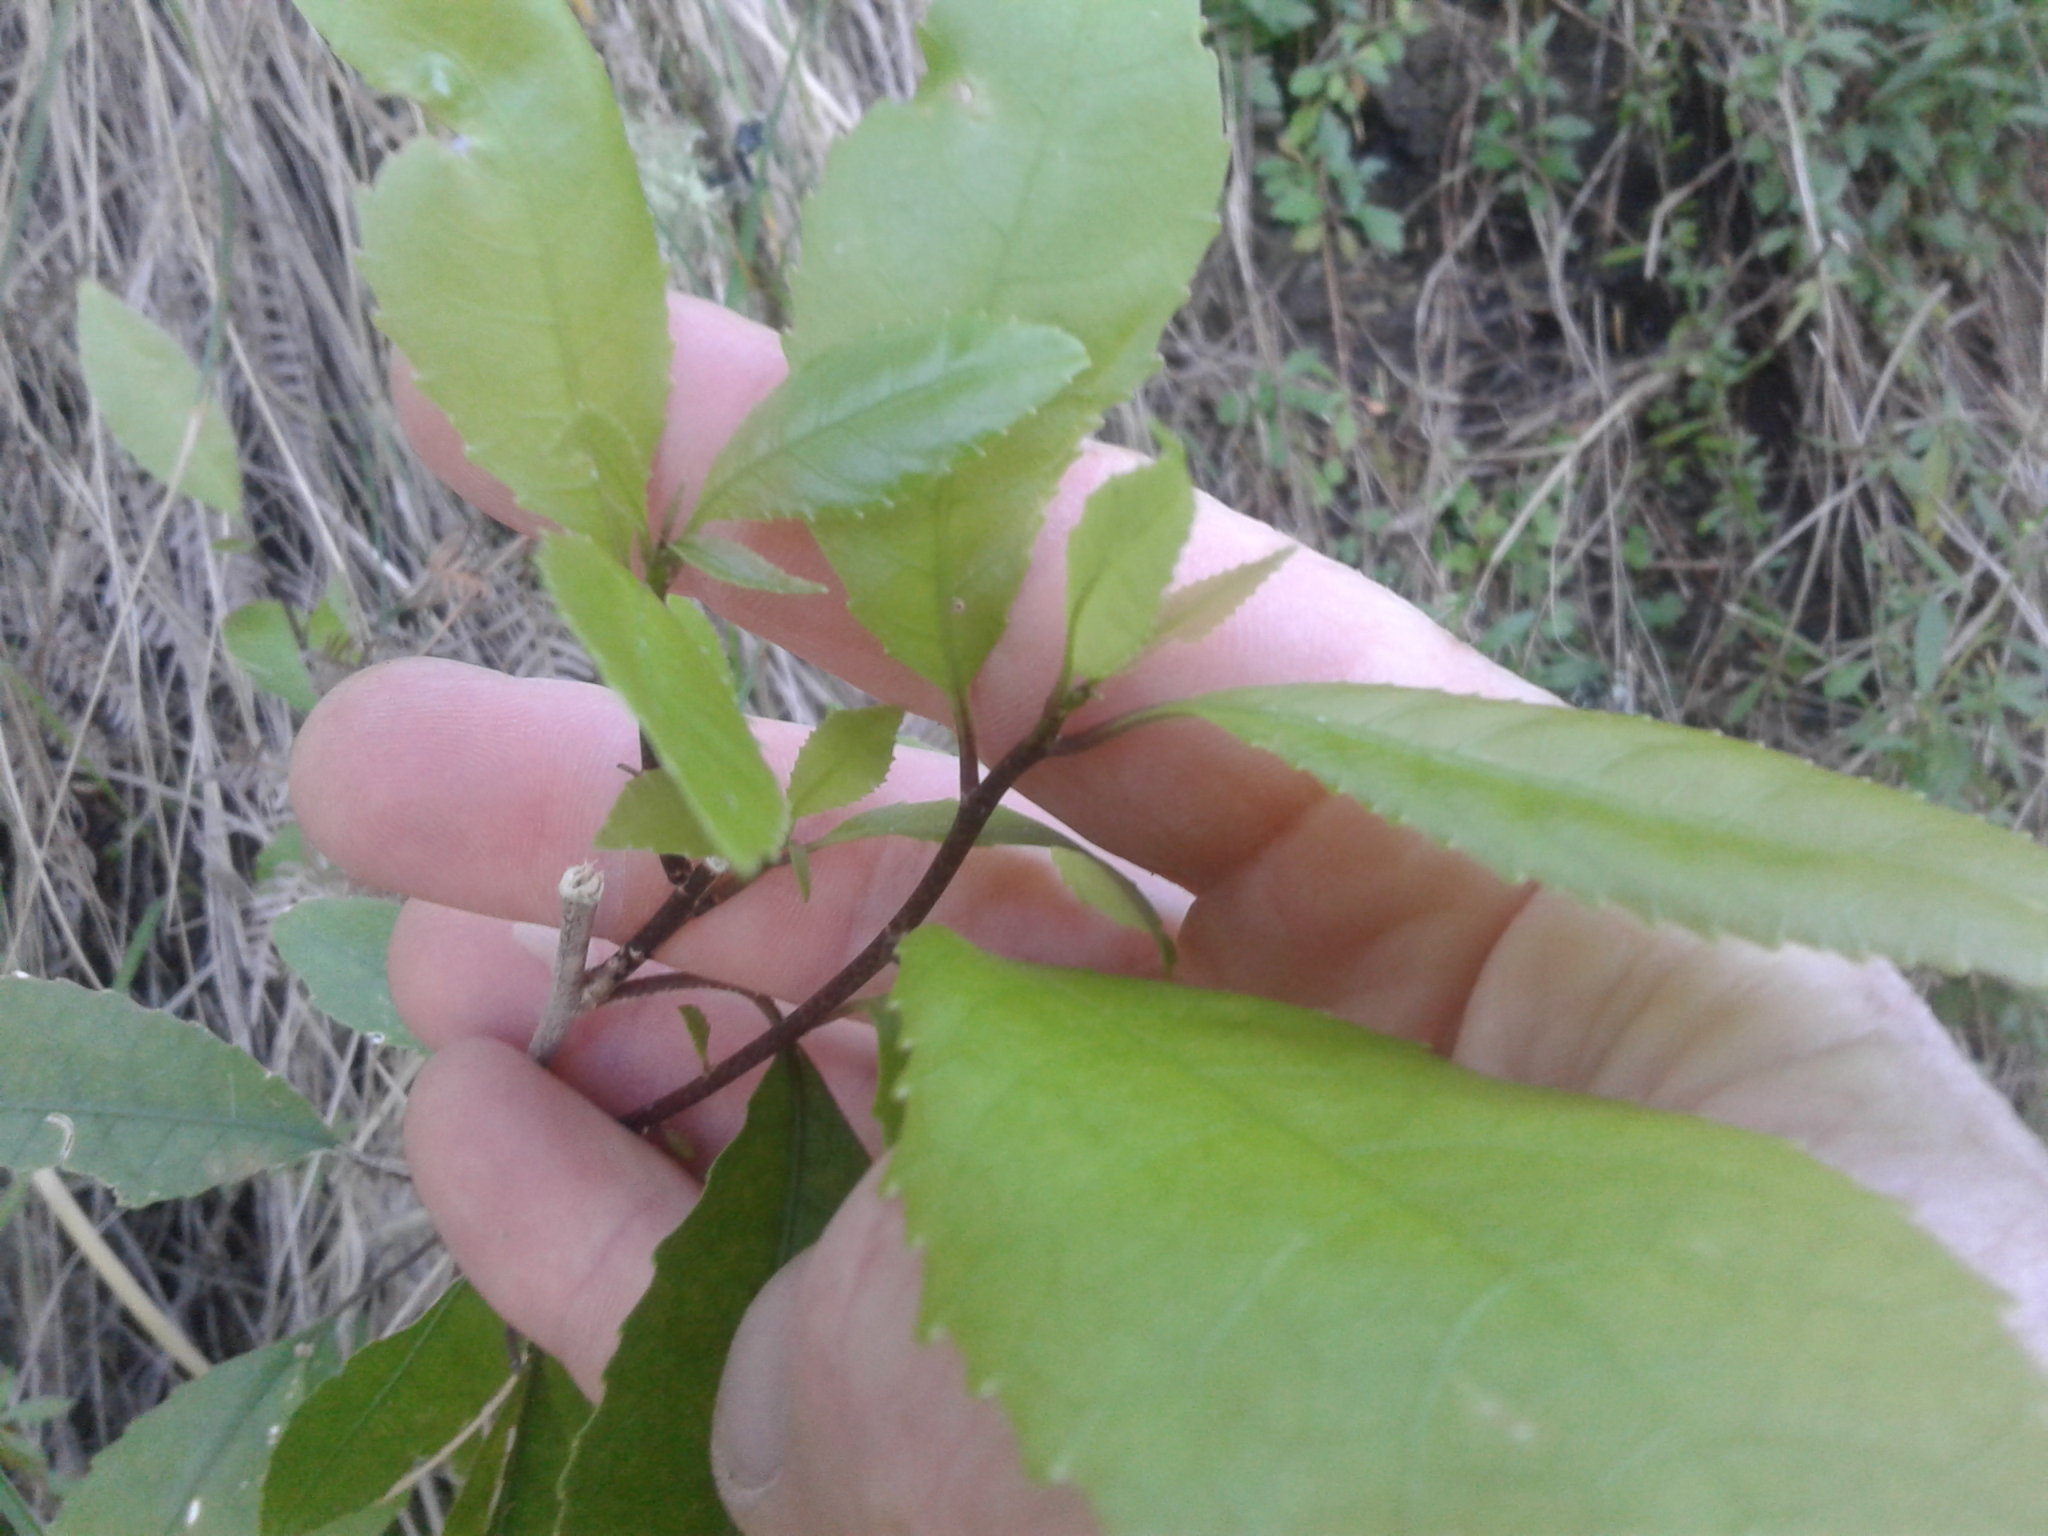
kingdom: Plantae
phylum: Tracheophyta
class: Magnoliopsida
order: Malpighiales
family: Violaceae
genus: Melicytus
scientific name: Melicytus ramiflorus
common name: Mahoe
